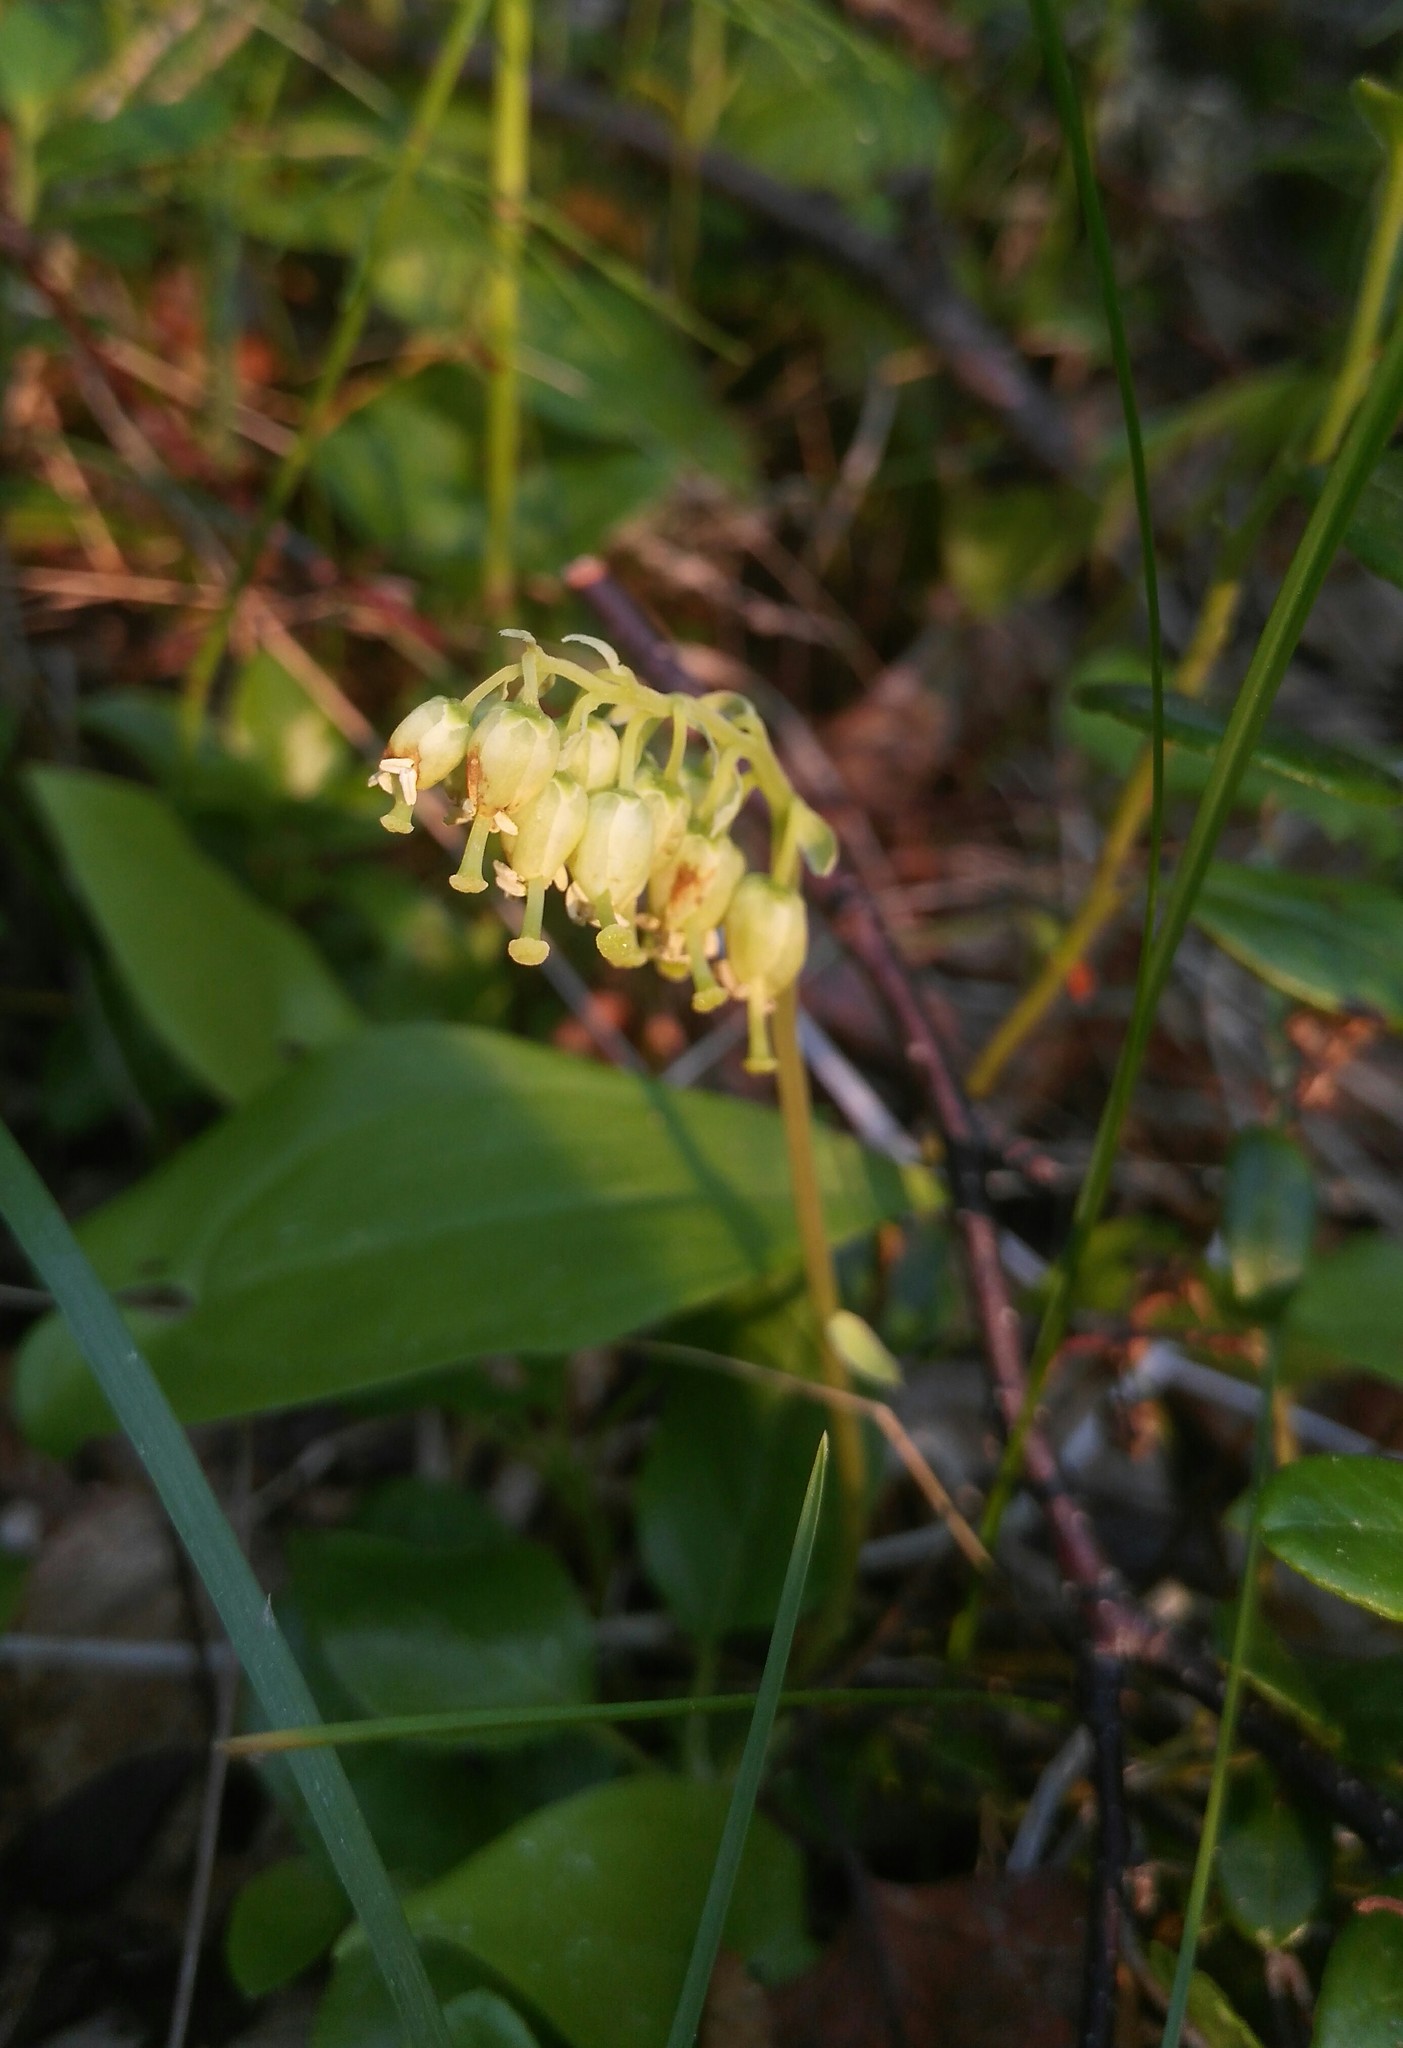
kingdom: Plantae
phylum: Tracheophyta
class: Magnoliopsida
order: Ericales
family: Ericaceae
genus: Orthilia
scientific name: Orthilia secunda
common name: One-sided orthilia
